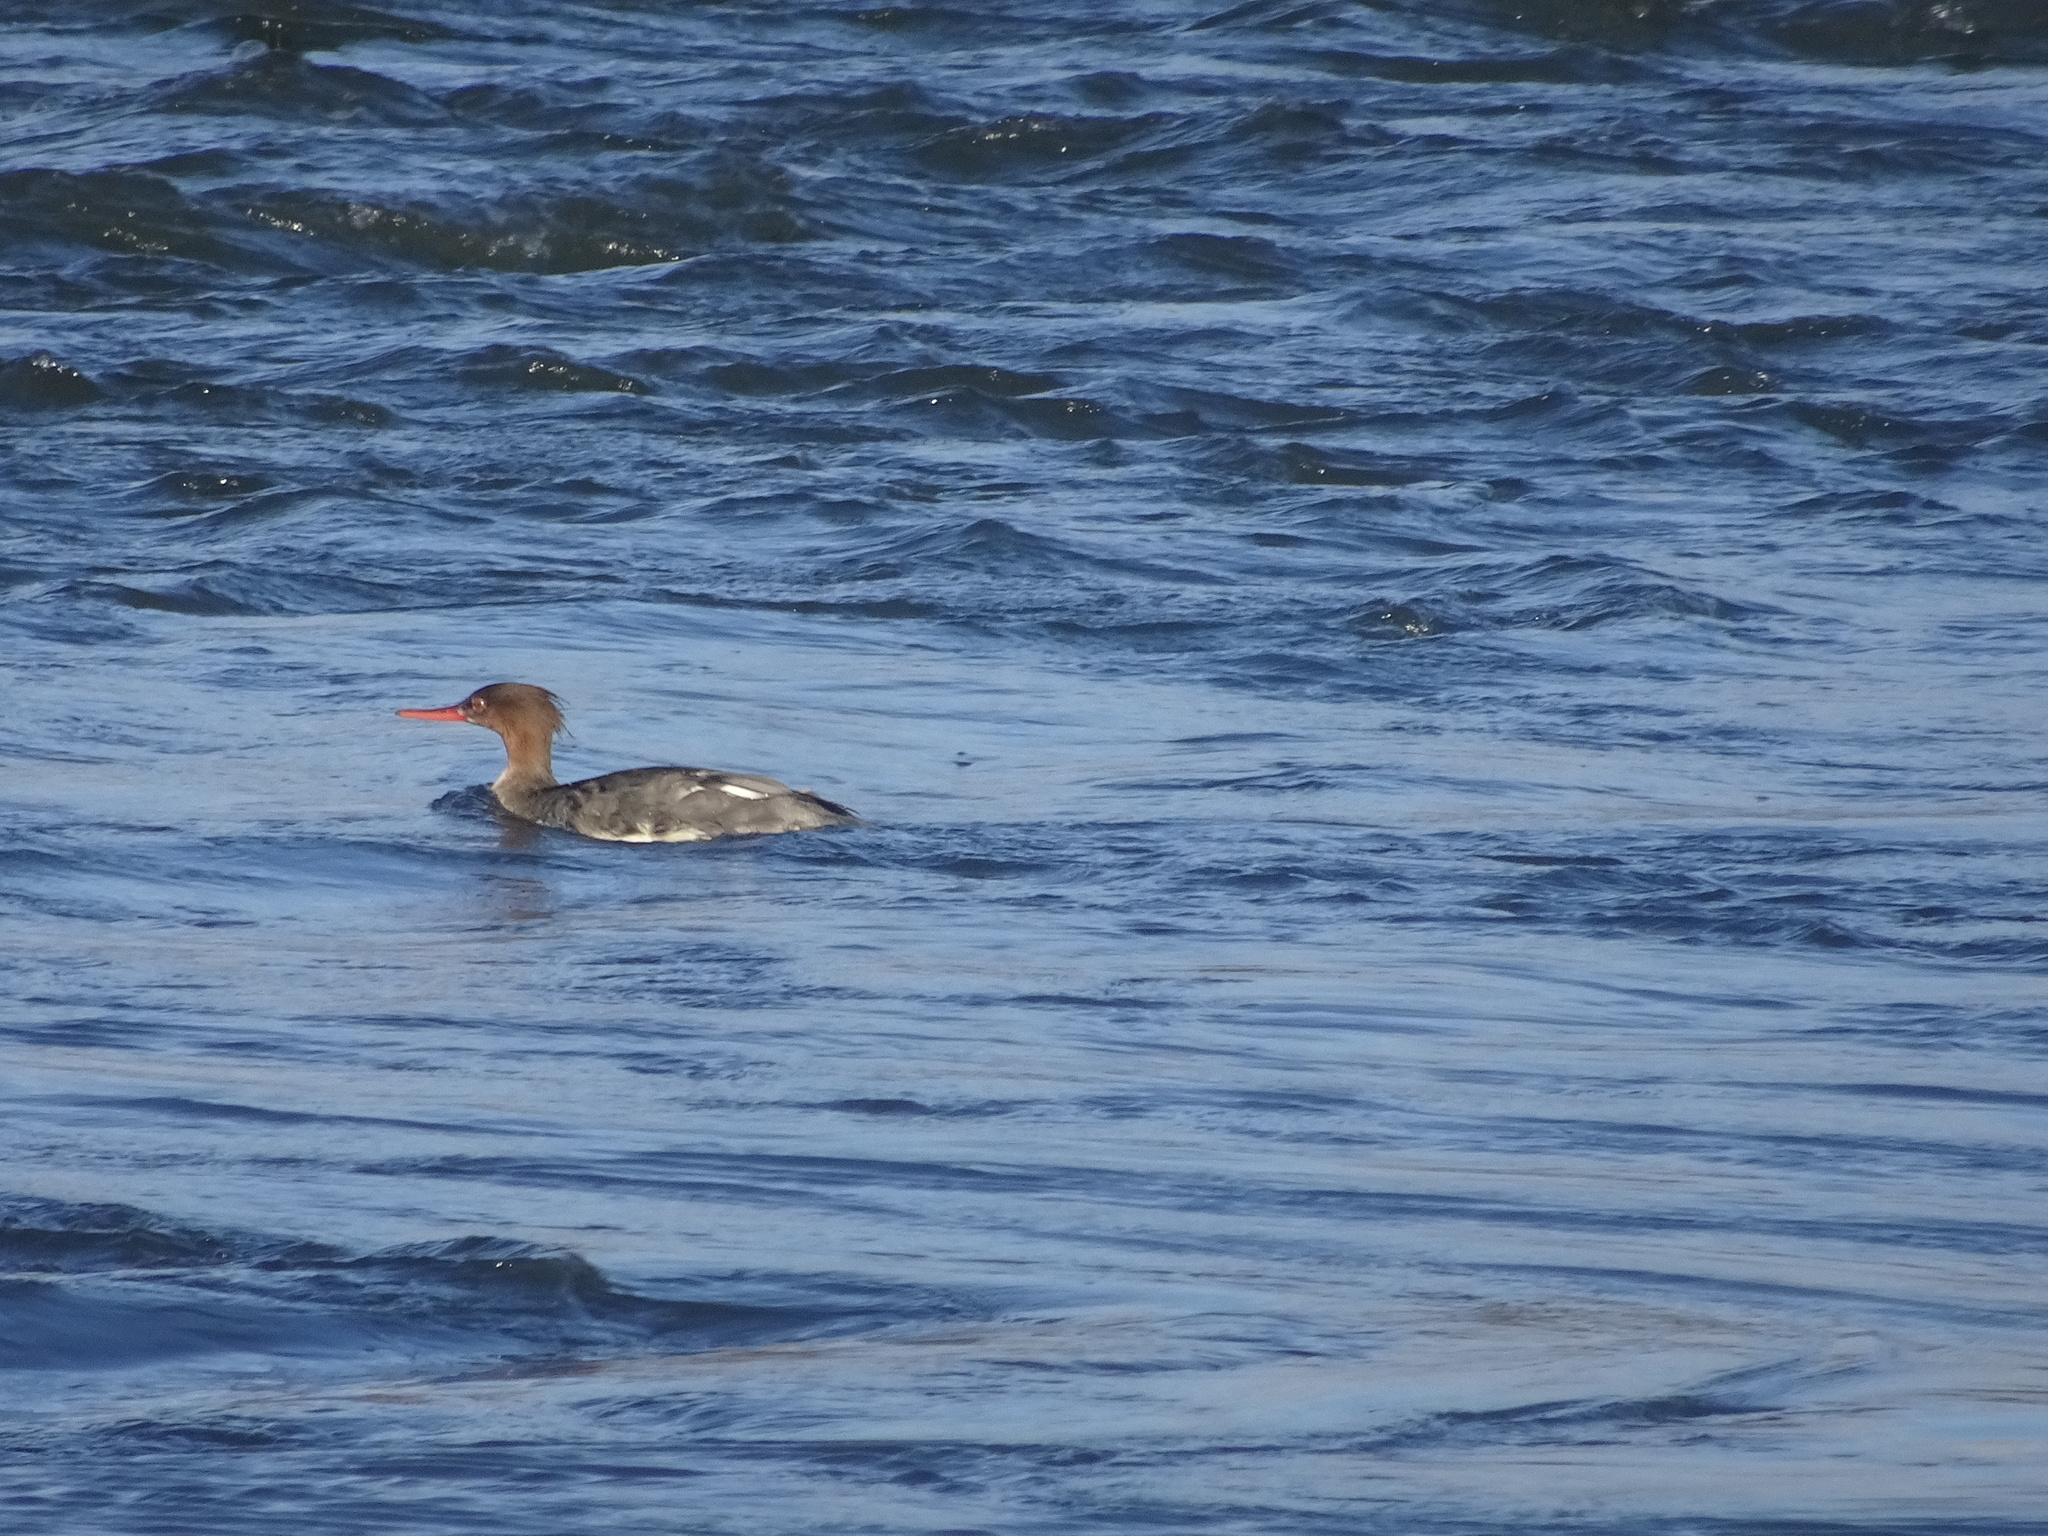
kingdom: Animalia
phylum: Chordata
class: Aves
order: Anseriformes
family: Anatidae
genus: Mergus
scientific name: Mergus serrator
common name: Red-breasted merganser
